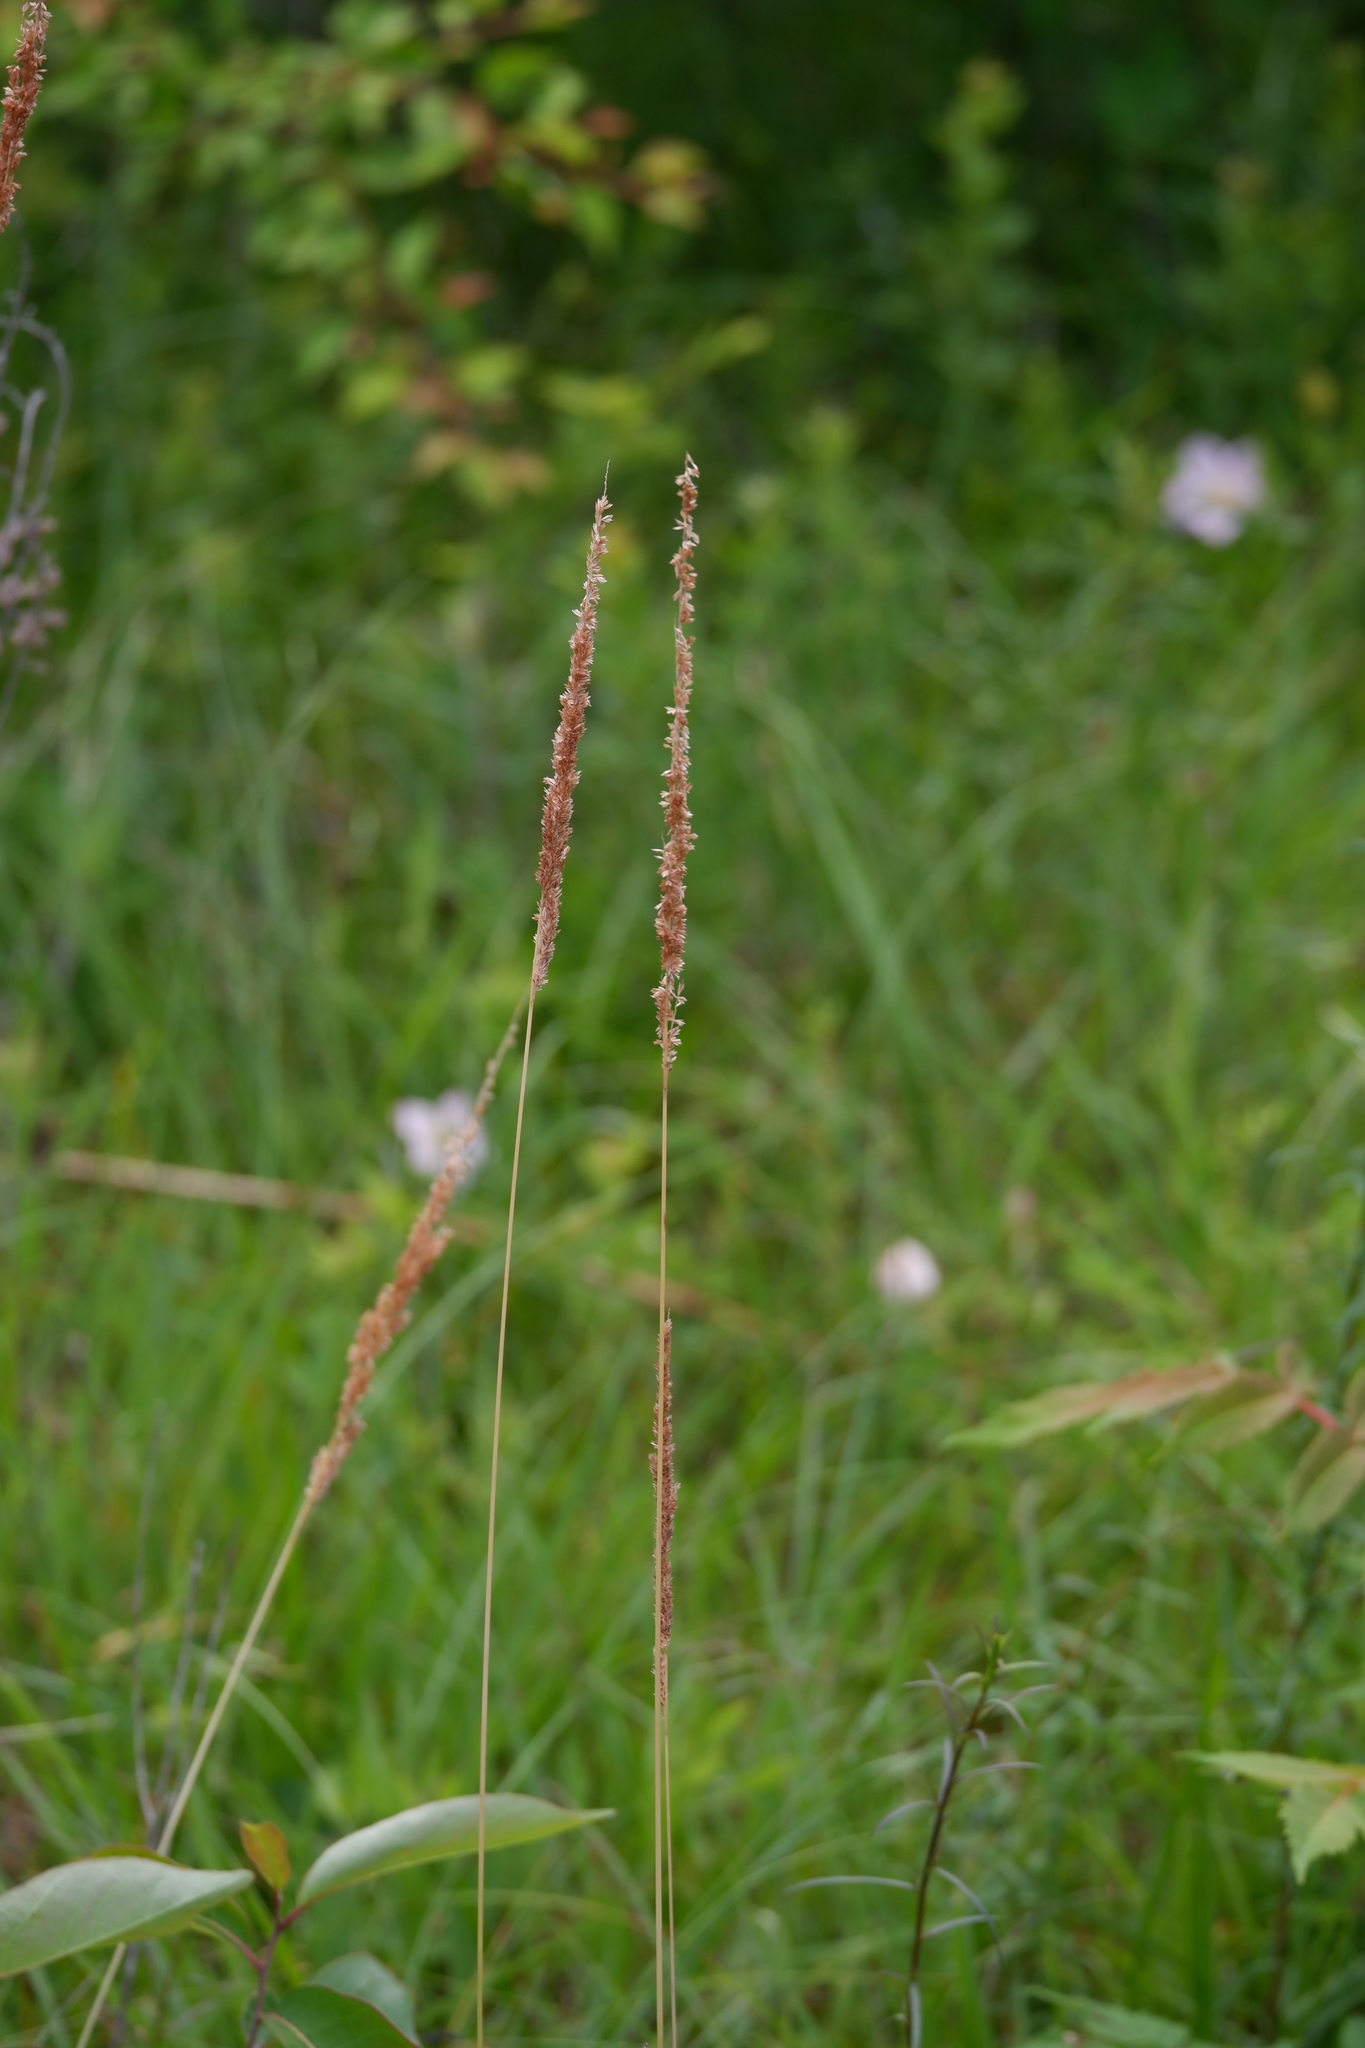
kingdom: Plantae
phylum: Tracheophyta
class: Liliopsida
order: Poales
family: Poaceae
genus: Tridens
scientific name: Tridens strictus
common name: Long-spike tridens
